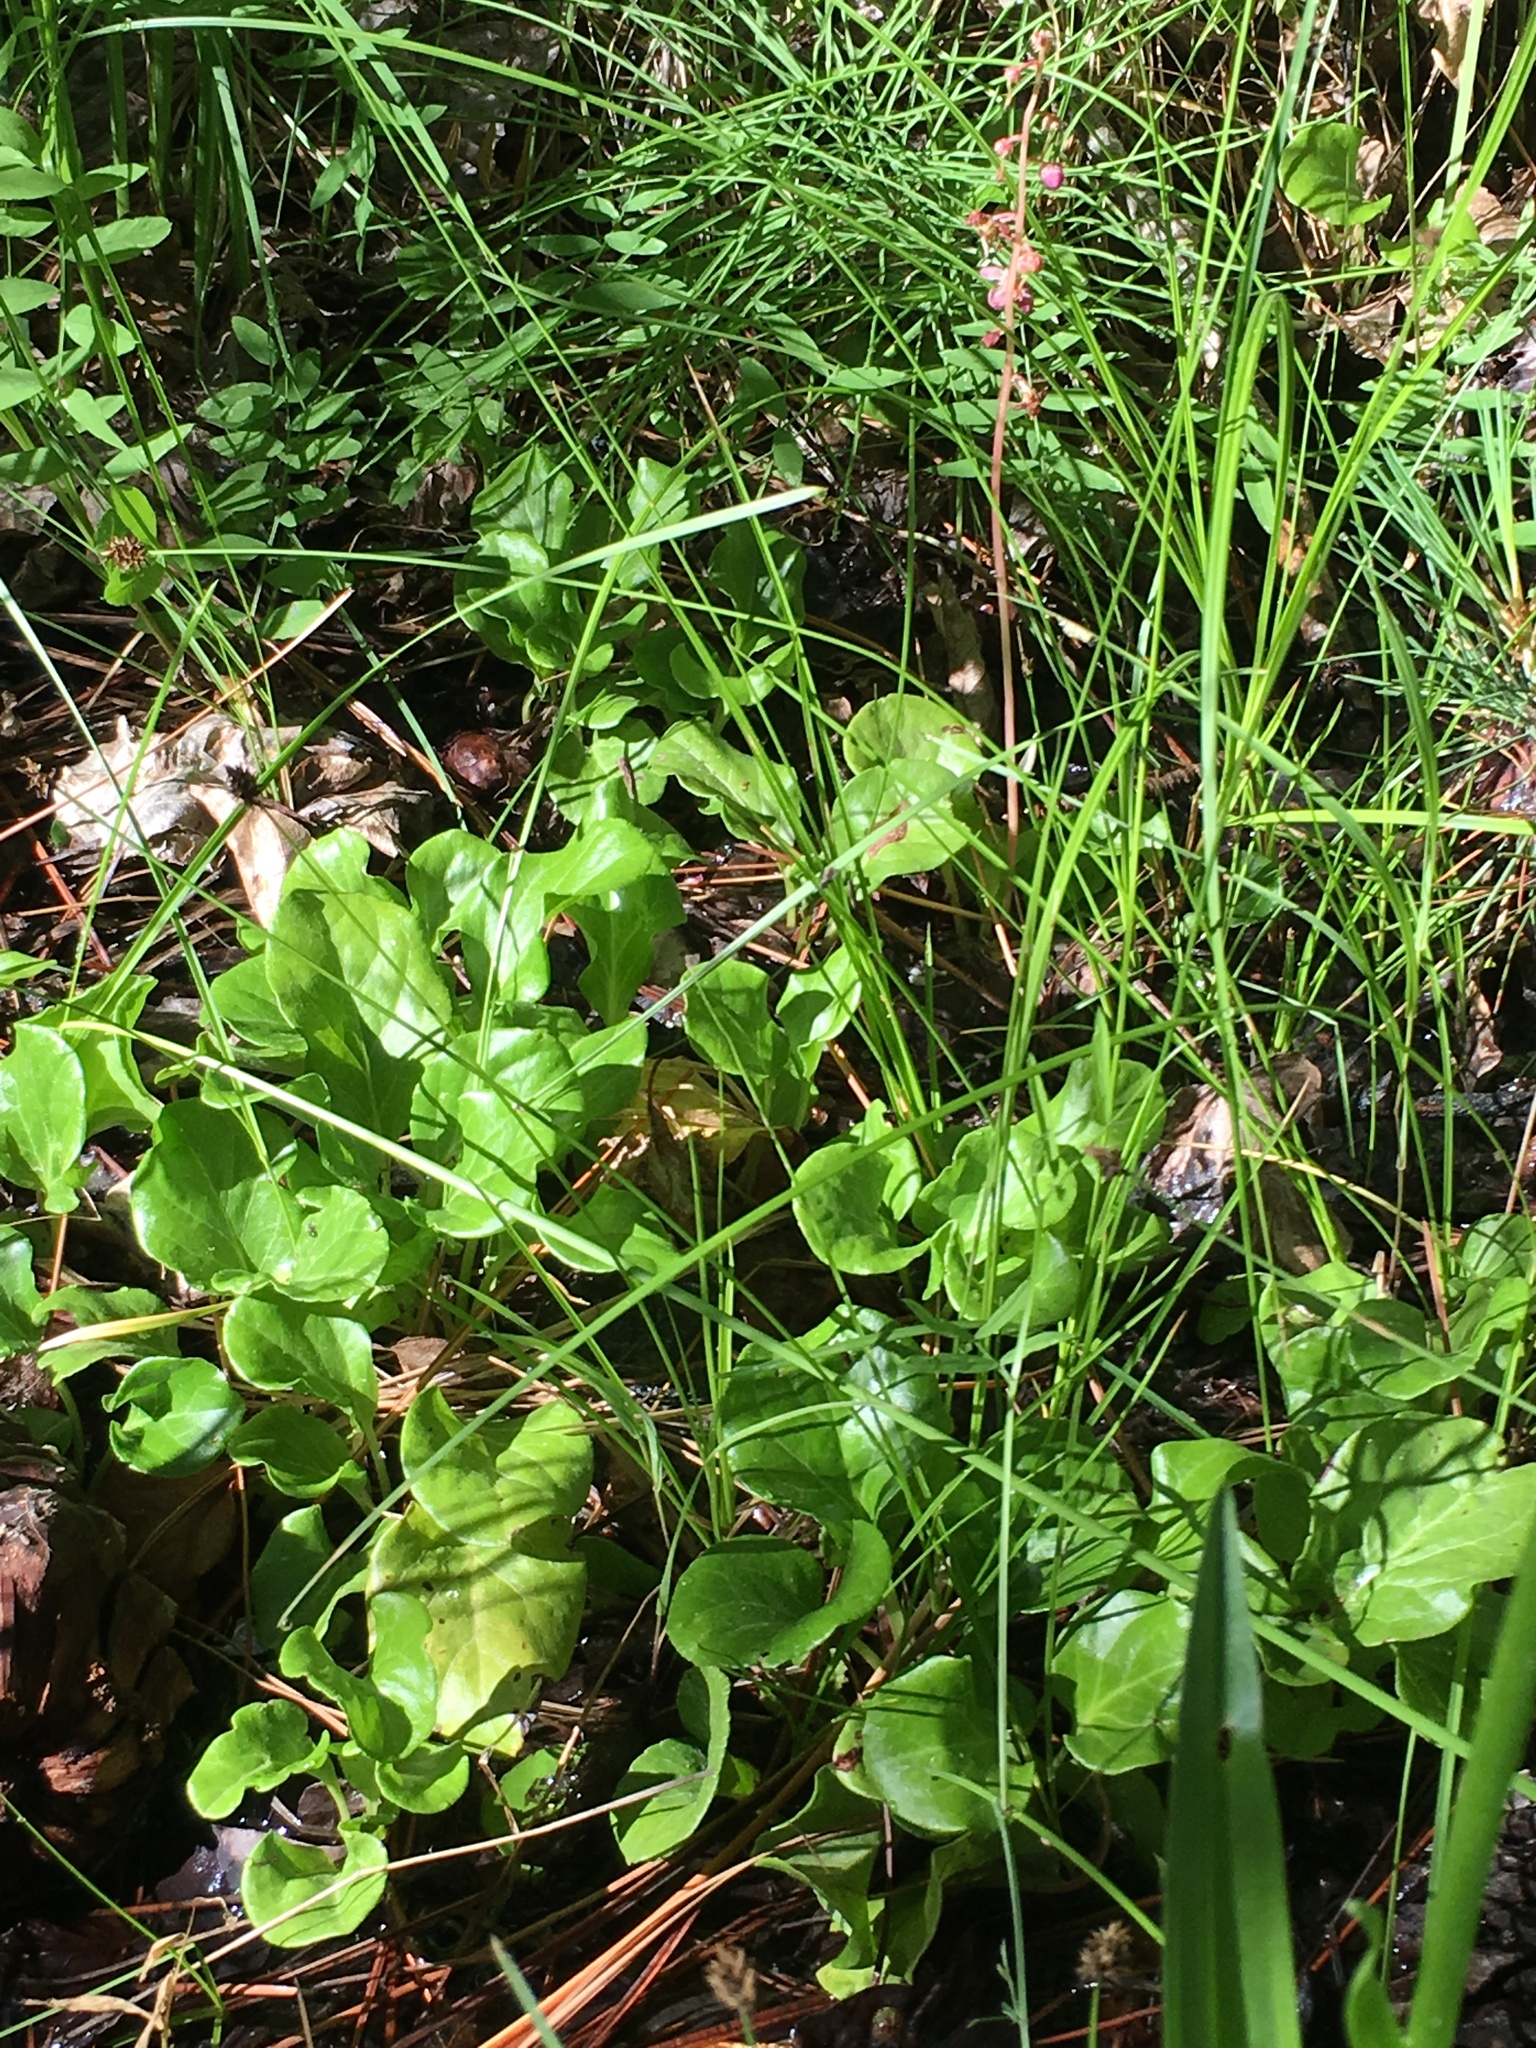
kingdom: Plantae
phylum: Tracheophyta
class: Magnoliopsida
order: Ericales
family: Ericaceae
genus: Pyrola
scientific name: Pyrola asarifolia
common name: Bog wintergreen
